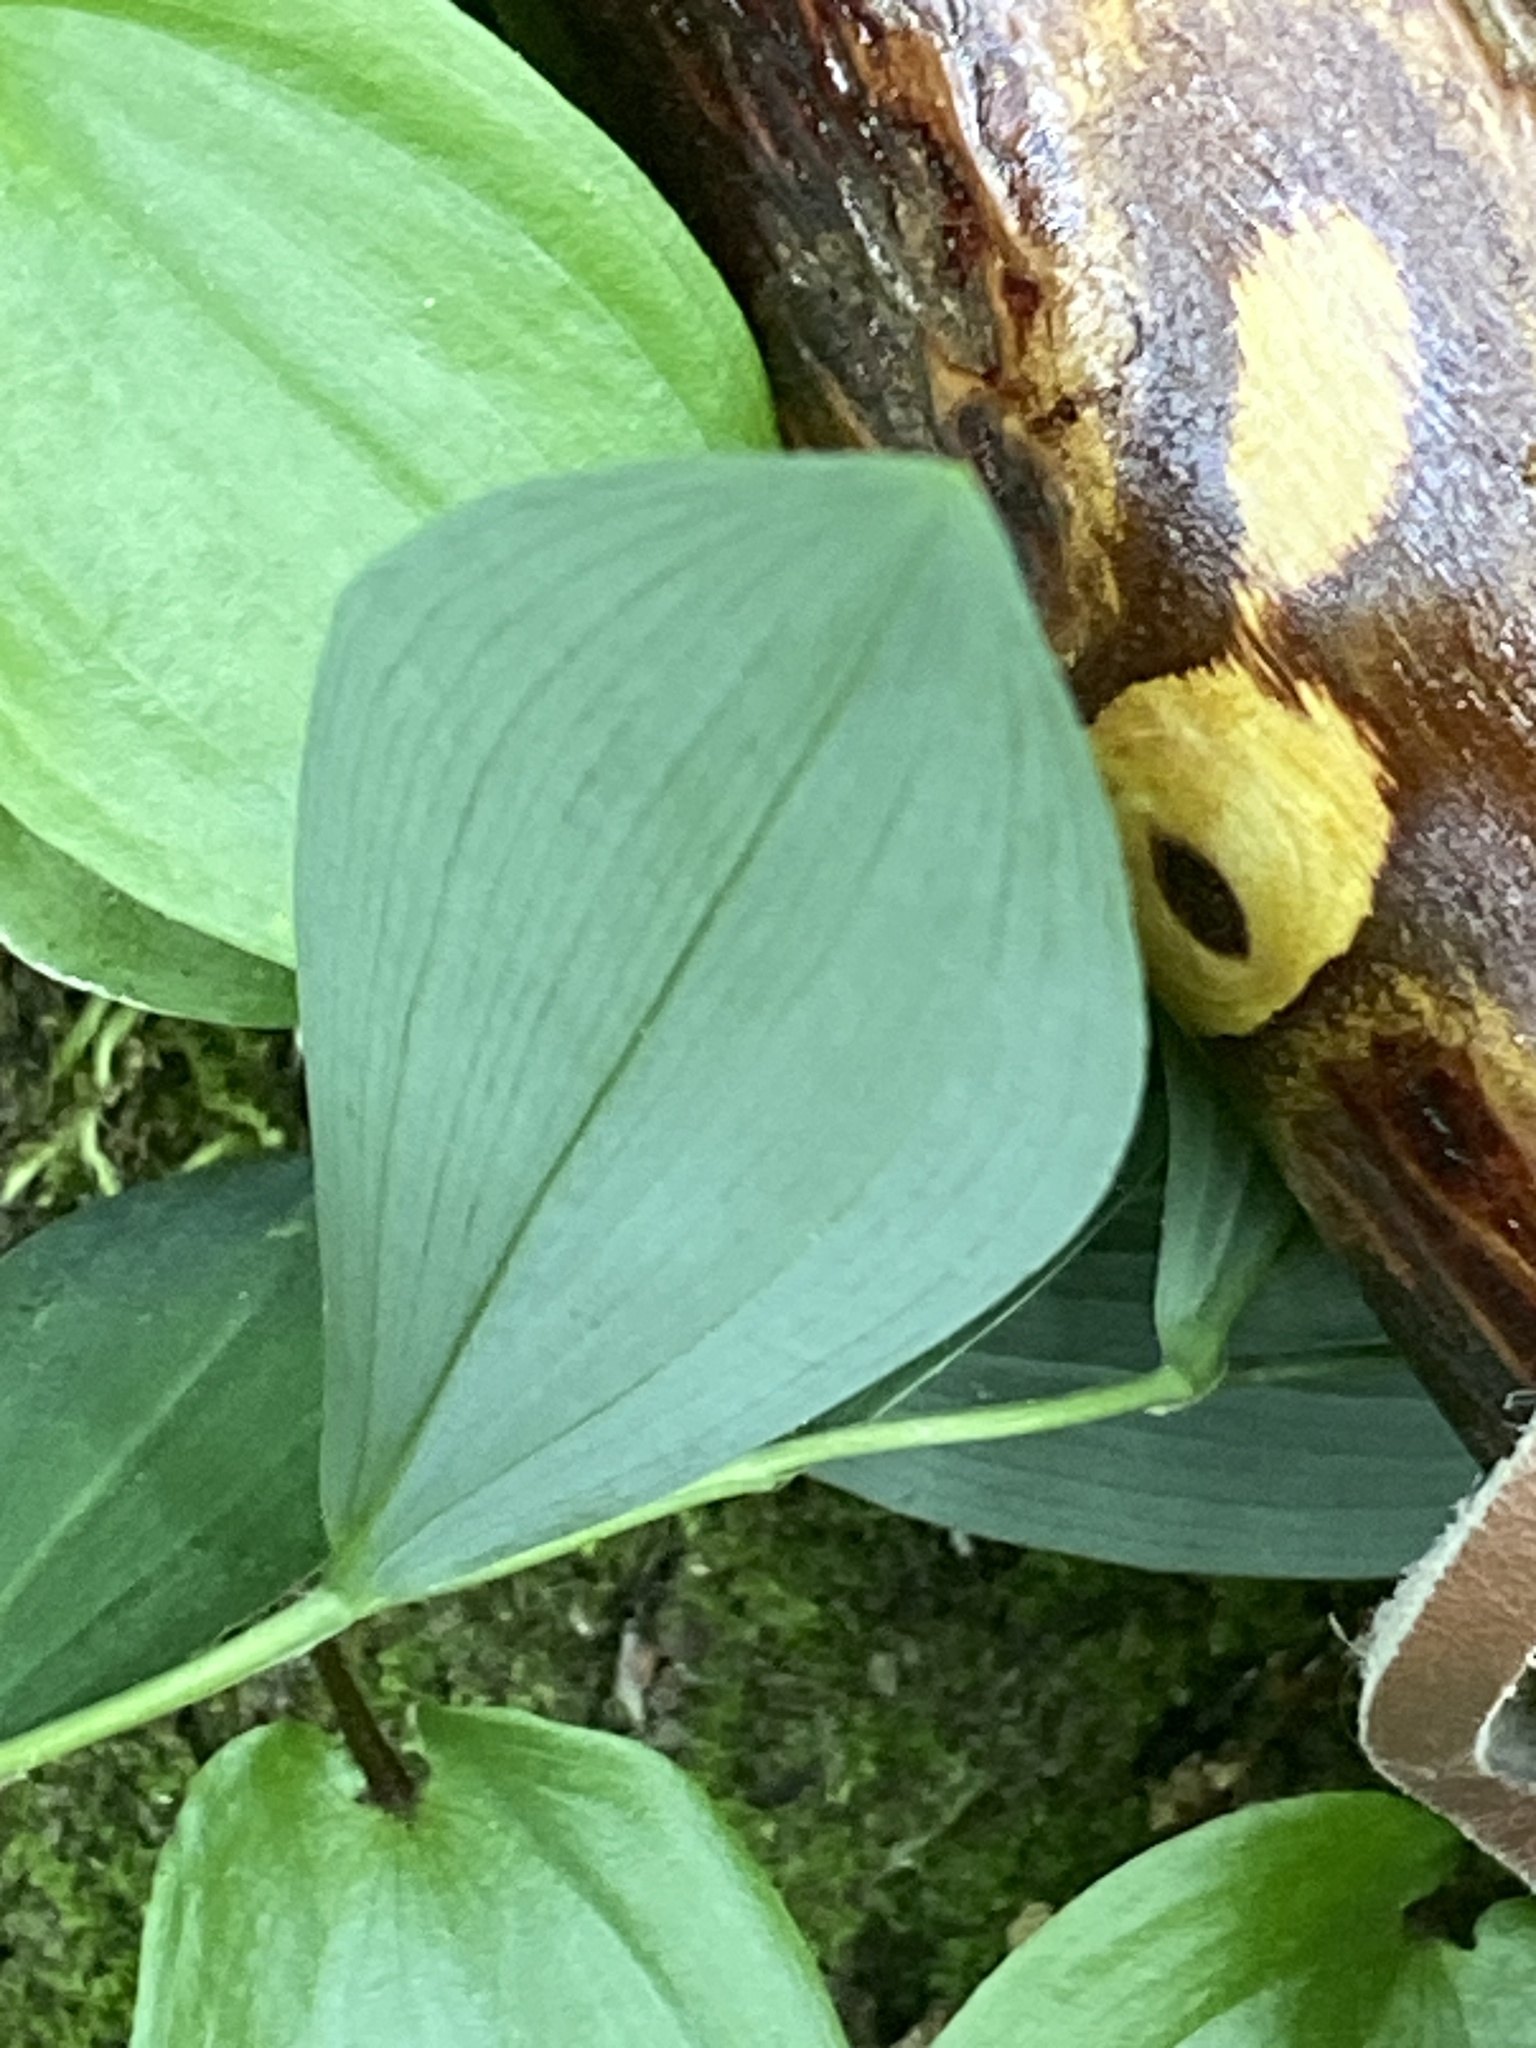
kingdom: Plantae
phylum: Tracheophyta
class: Liliopsida
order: Liliales
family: Colchicaceae
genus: Uvularia
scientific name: Uvularia sessilifolia
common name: Straw-lily
